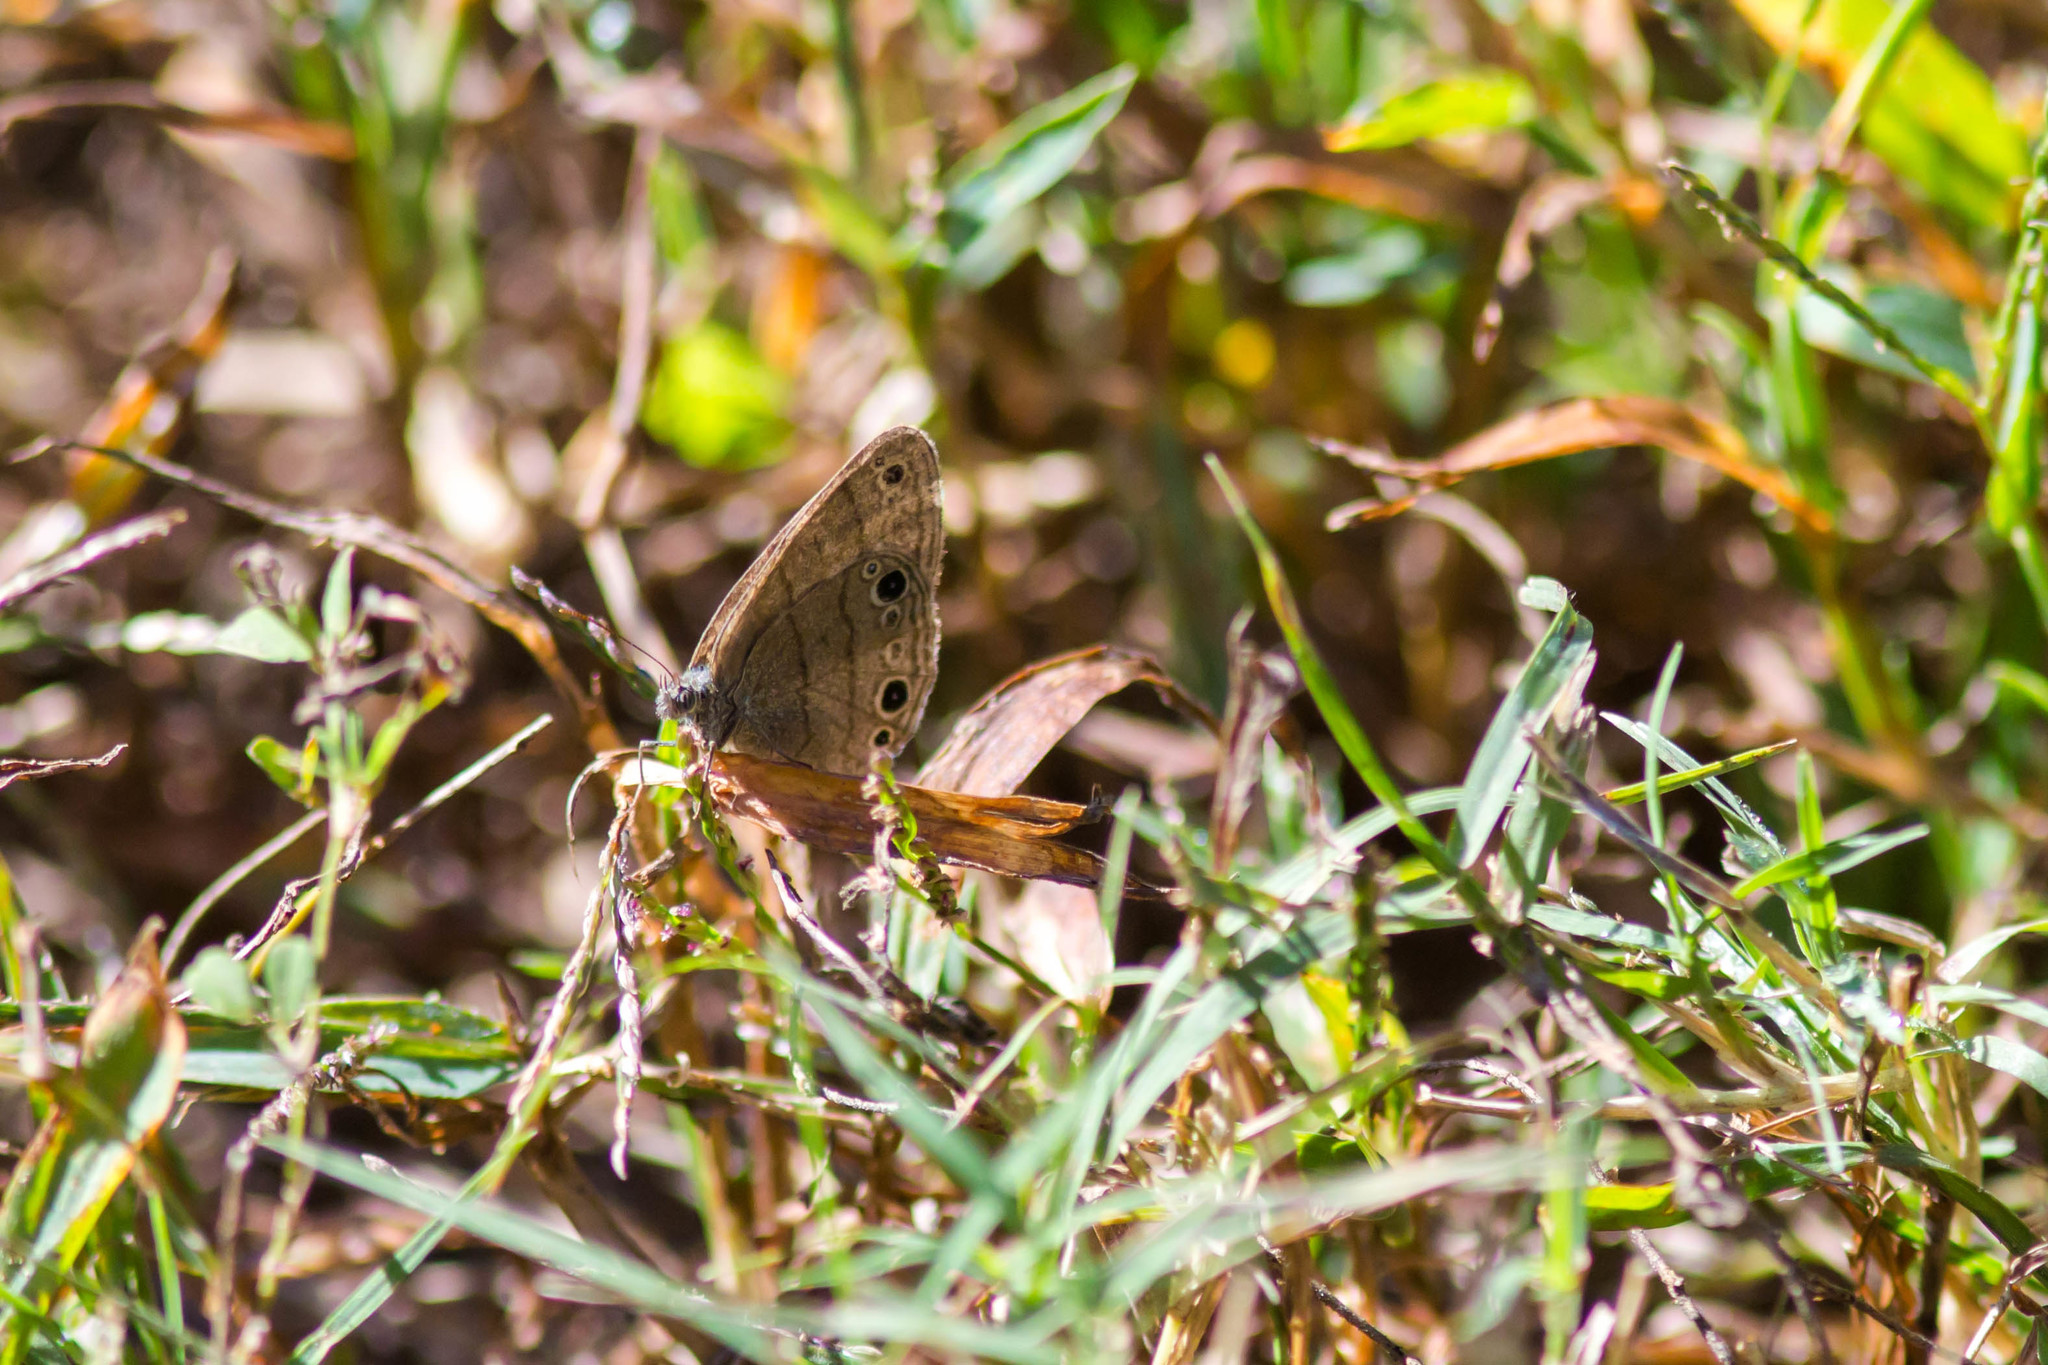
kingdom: Animalia
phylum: Arthropoda
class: Insecta
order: Lepidoptera
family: Nymphalidae
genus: Hermeuptychia
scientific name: Hermeuptychia hermes
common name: Hermes satyr
